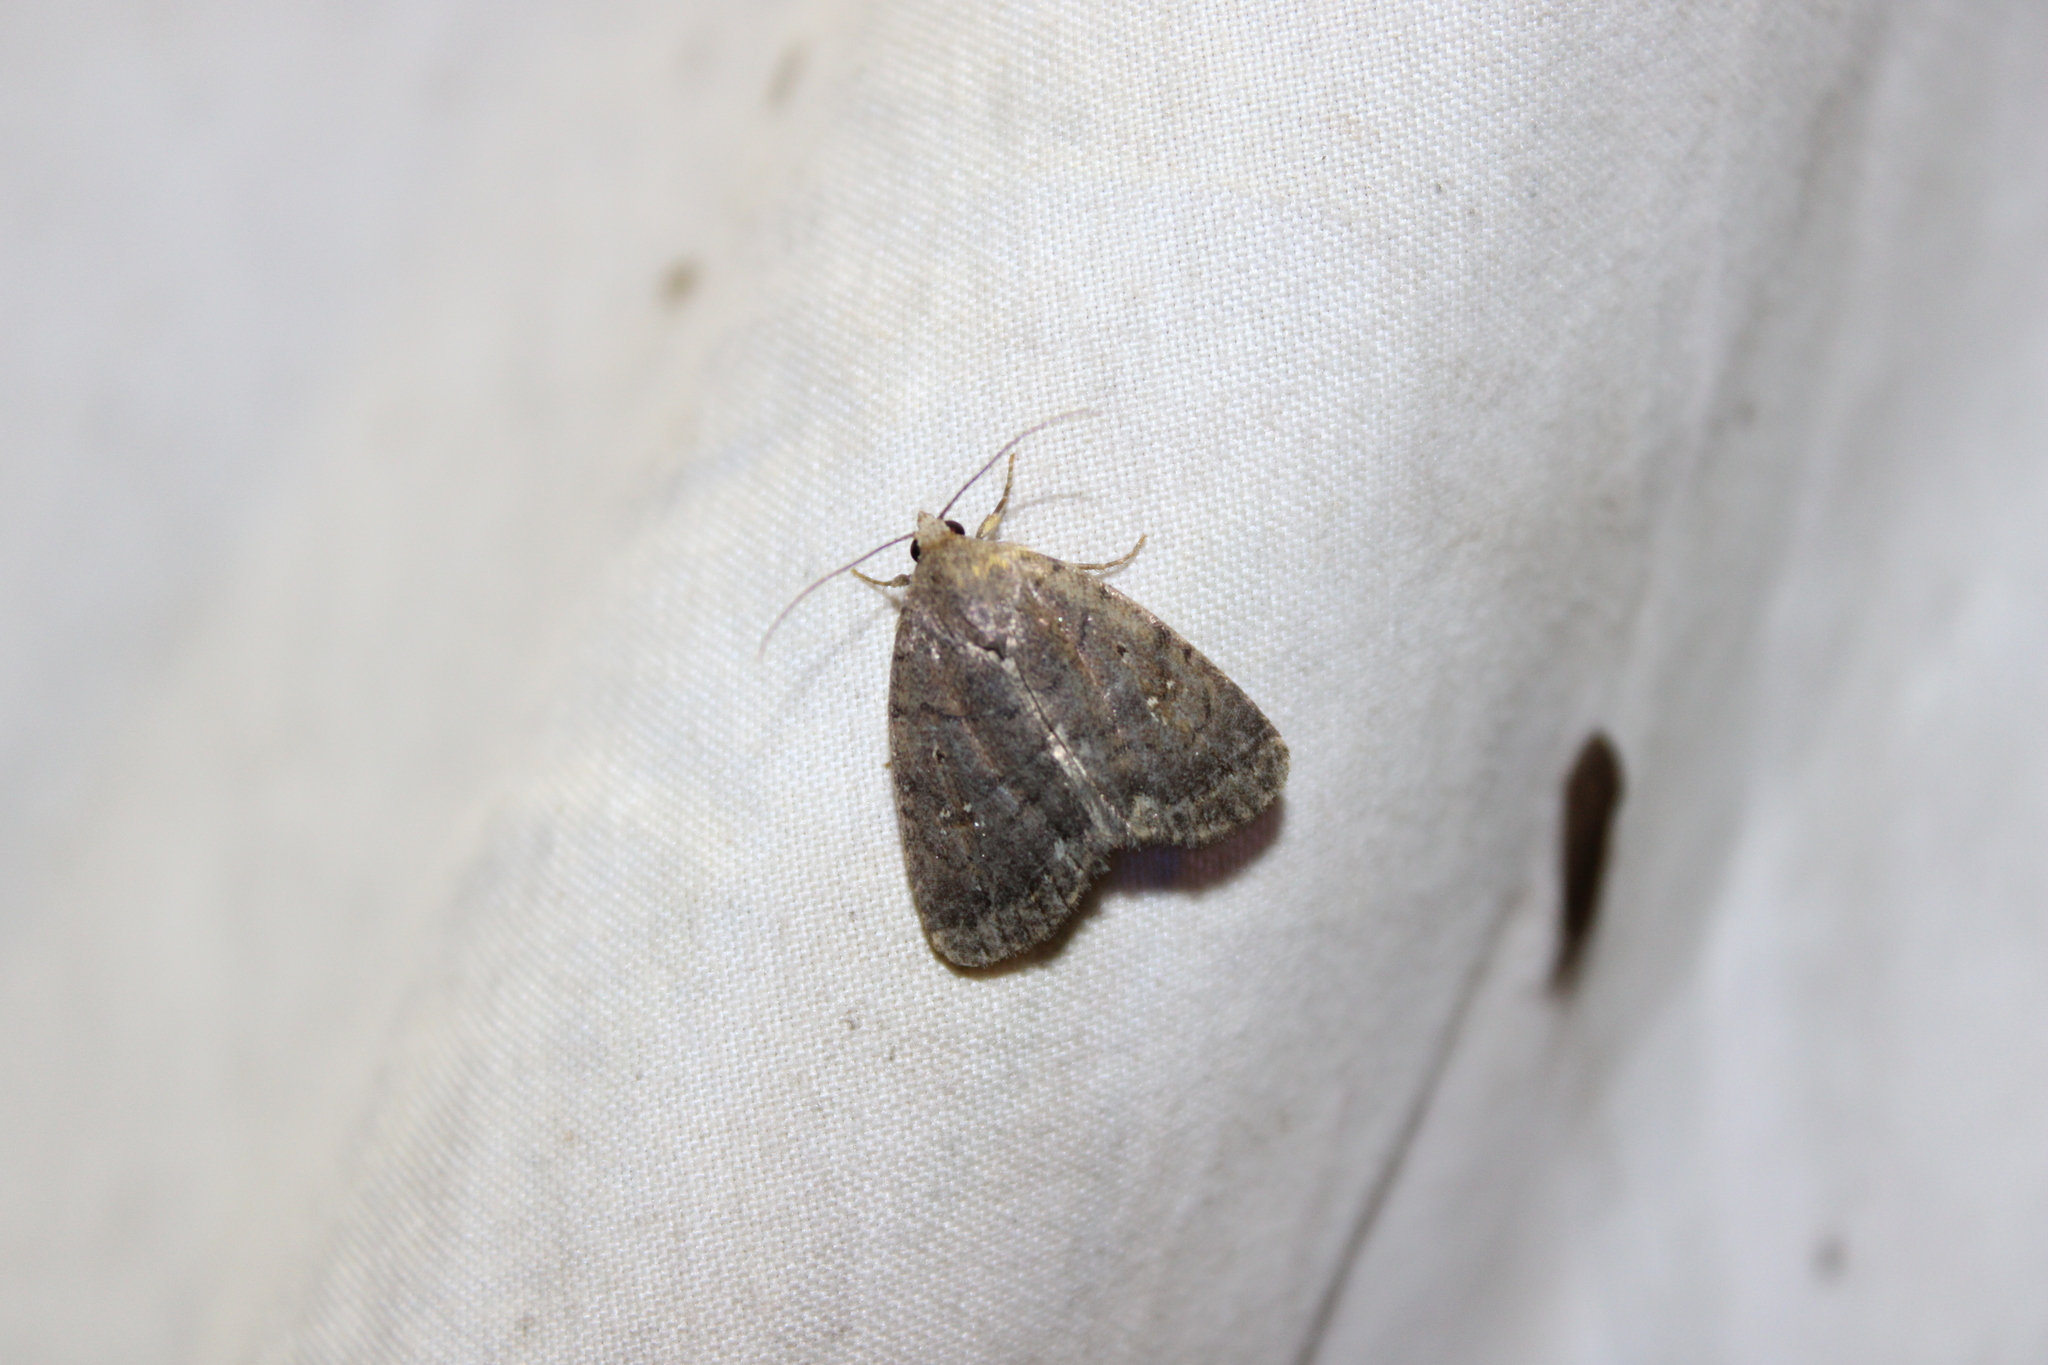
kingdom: Animalia
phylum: Arthropoda
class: Insecta
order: Lepidoptera
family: Noctuidae
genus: Athetis
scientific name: Athetis tarda
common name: Slowpoke moth
